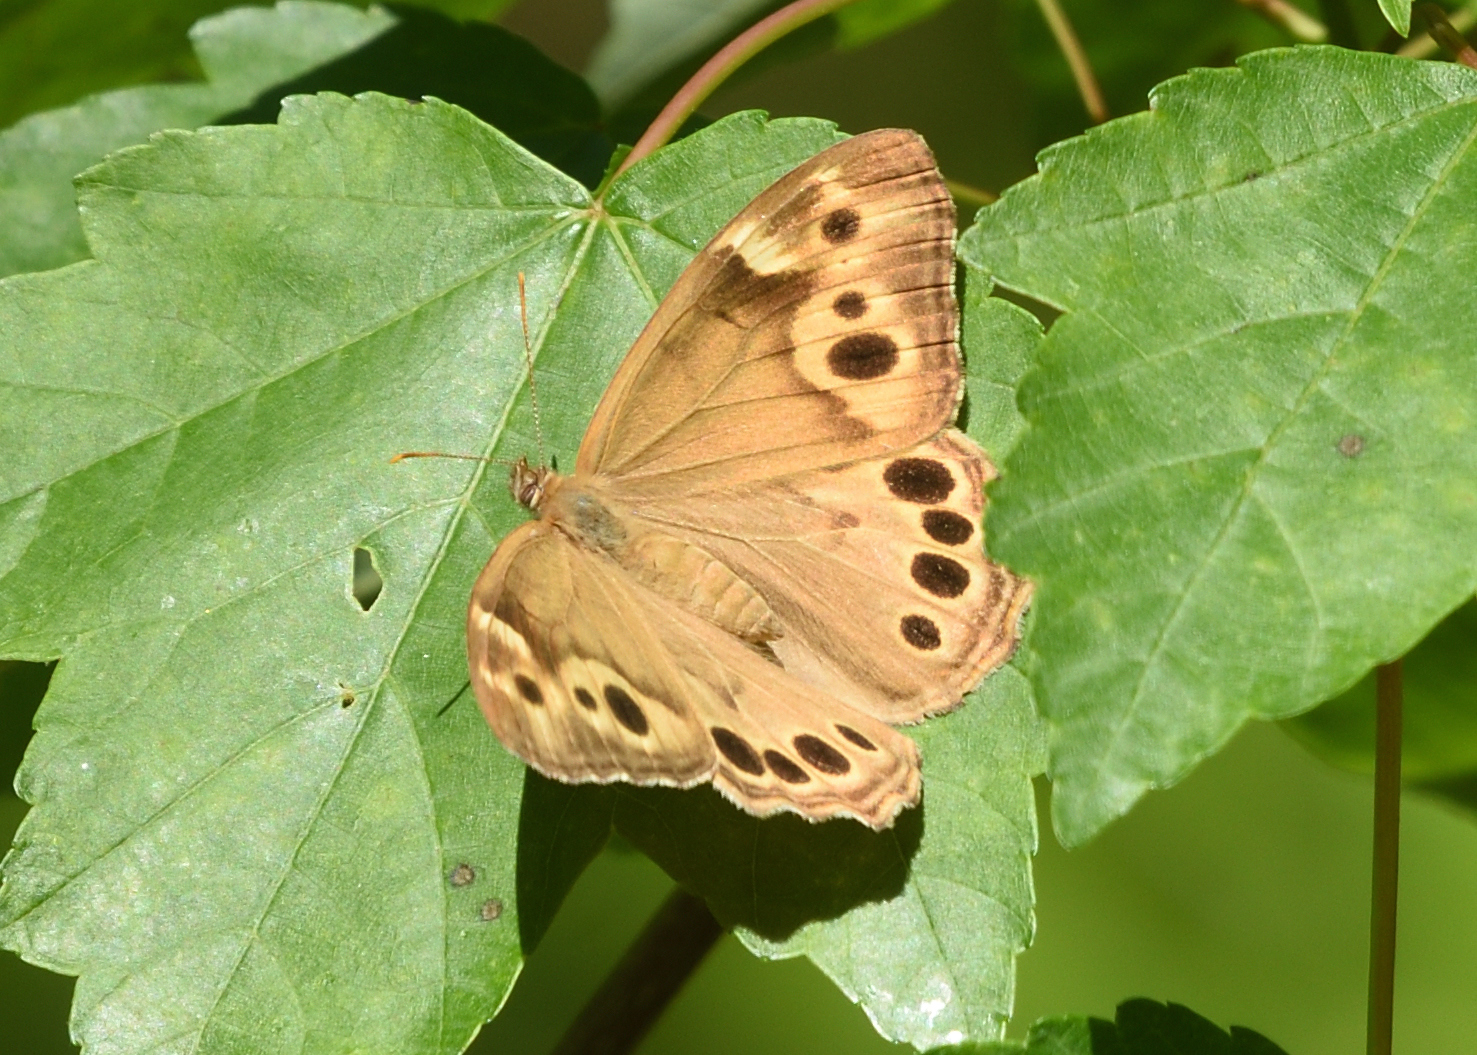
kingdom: Animalia
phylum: Arthropoda
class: Insecta
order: Lepidoptera
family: Nymphalidae
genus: Enodia
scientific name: Enodia portlandia
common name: Southern pearly-eye
